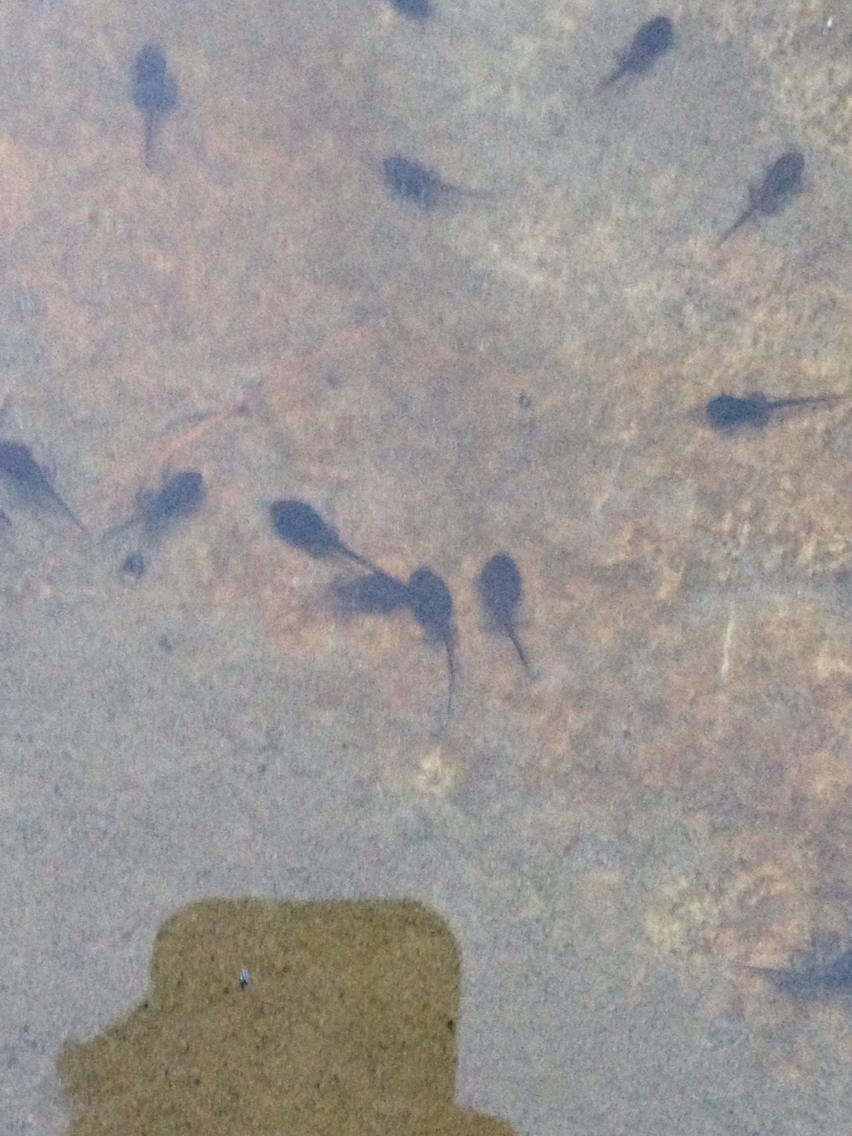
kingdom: Animalia
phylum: Chordata
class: Amphibia
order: Anura
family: Bufonidae
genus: Anaxyrus
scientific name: Anaxyrus americanus
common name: American toad
